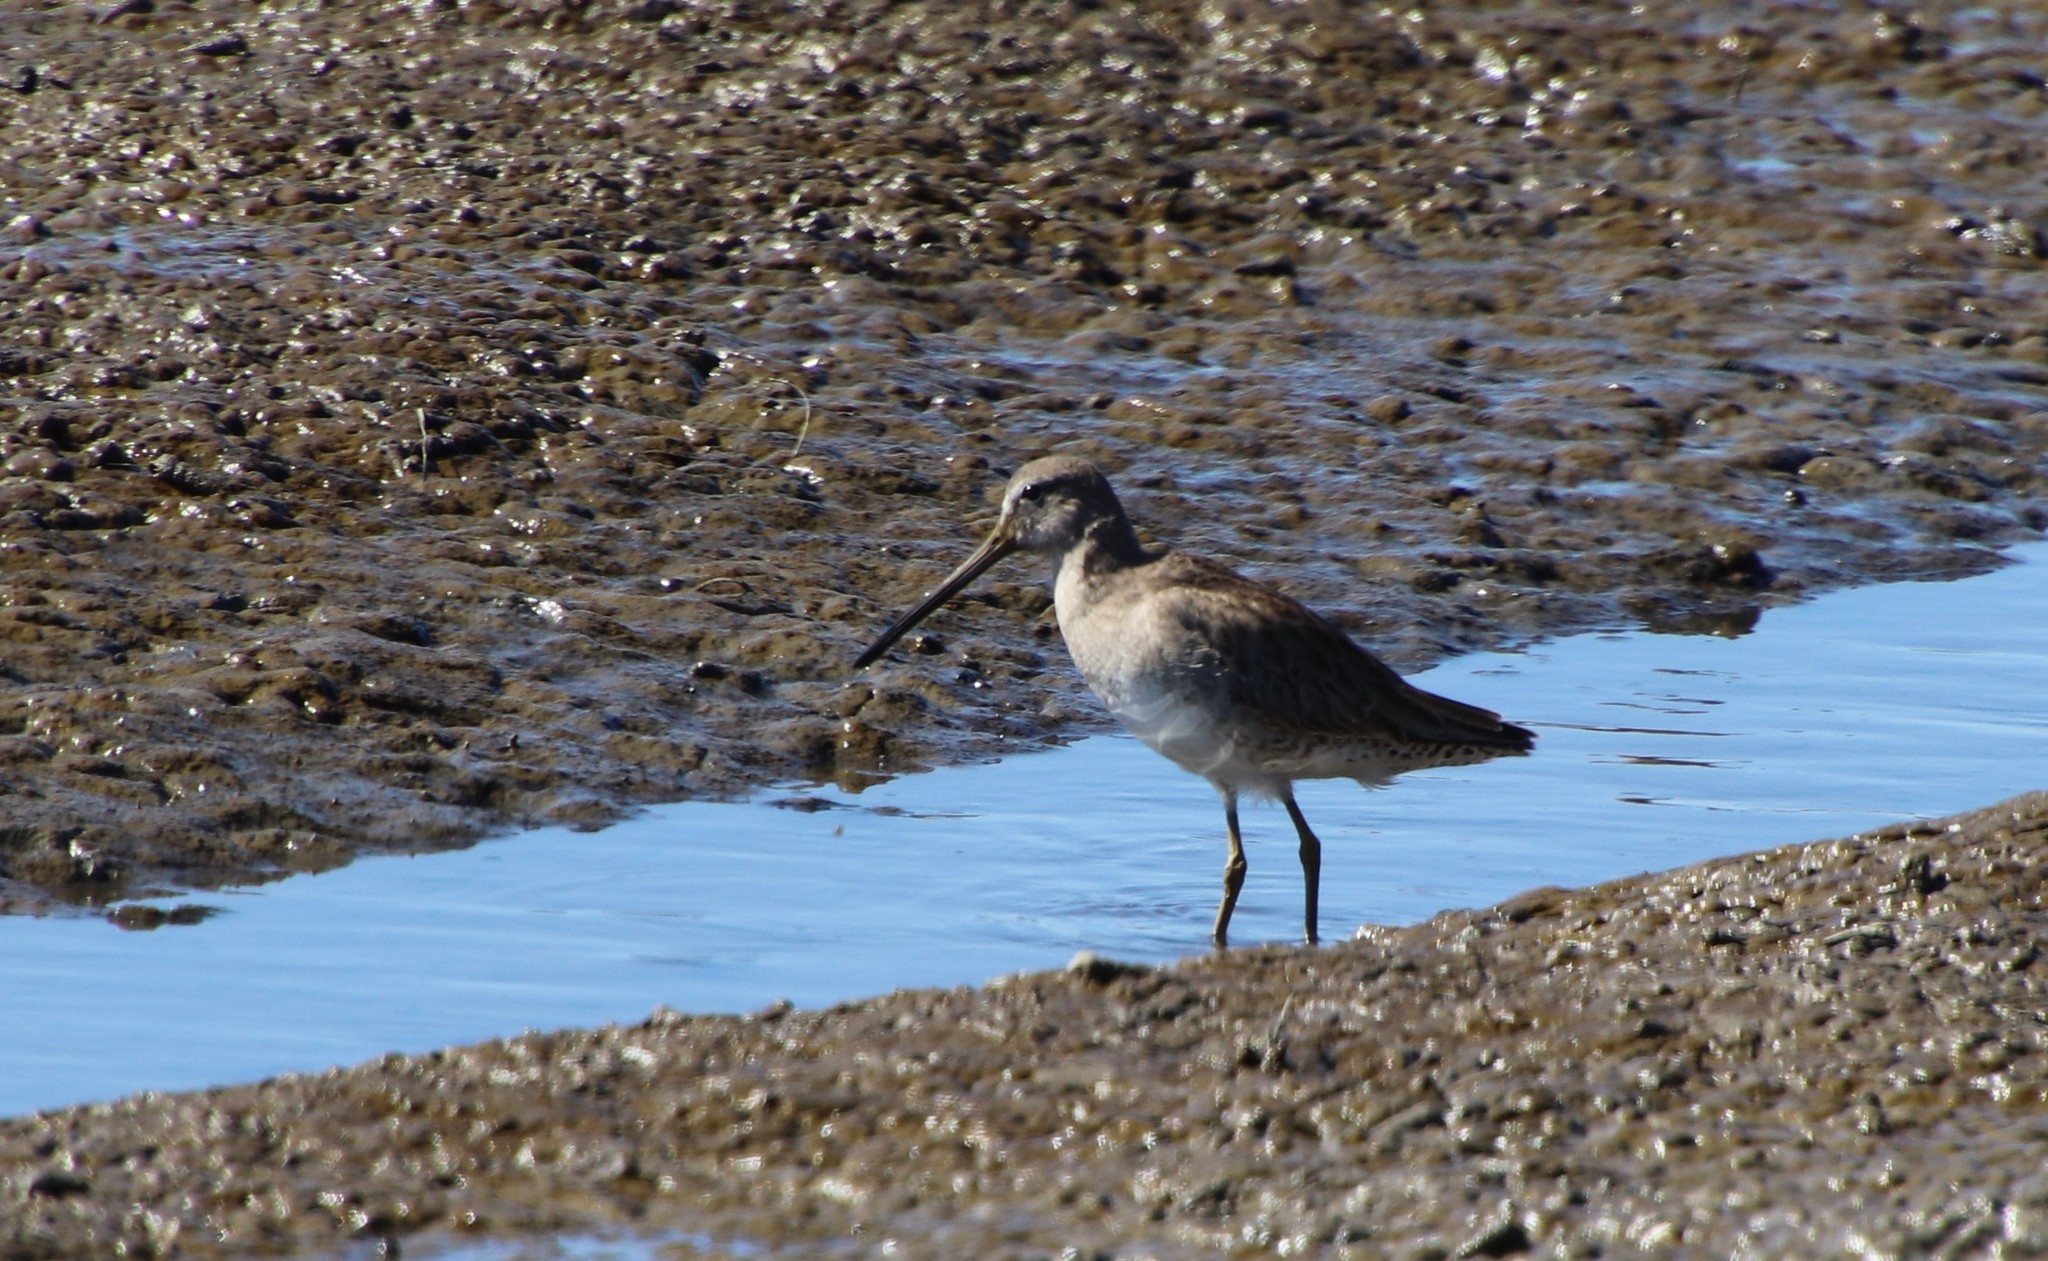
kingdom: Animalia
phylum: Chordata
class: Aves
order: Charadriiformes
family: Scolopacidae
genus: Limnodromus
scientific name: Limnodromus
